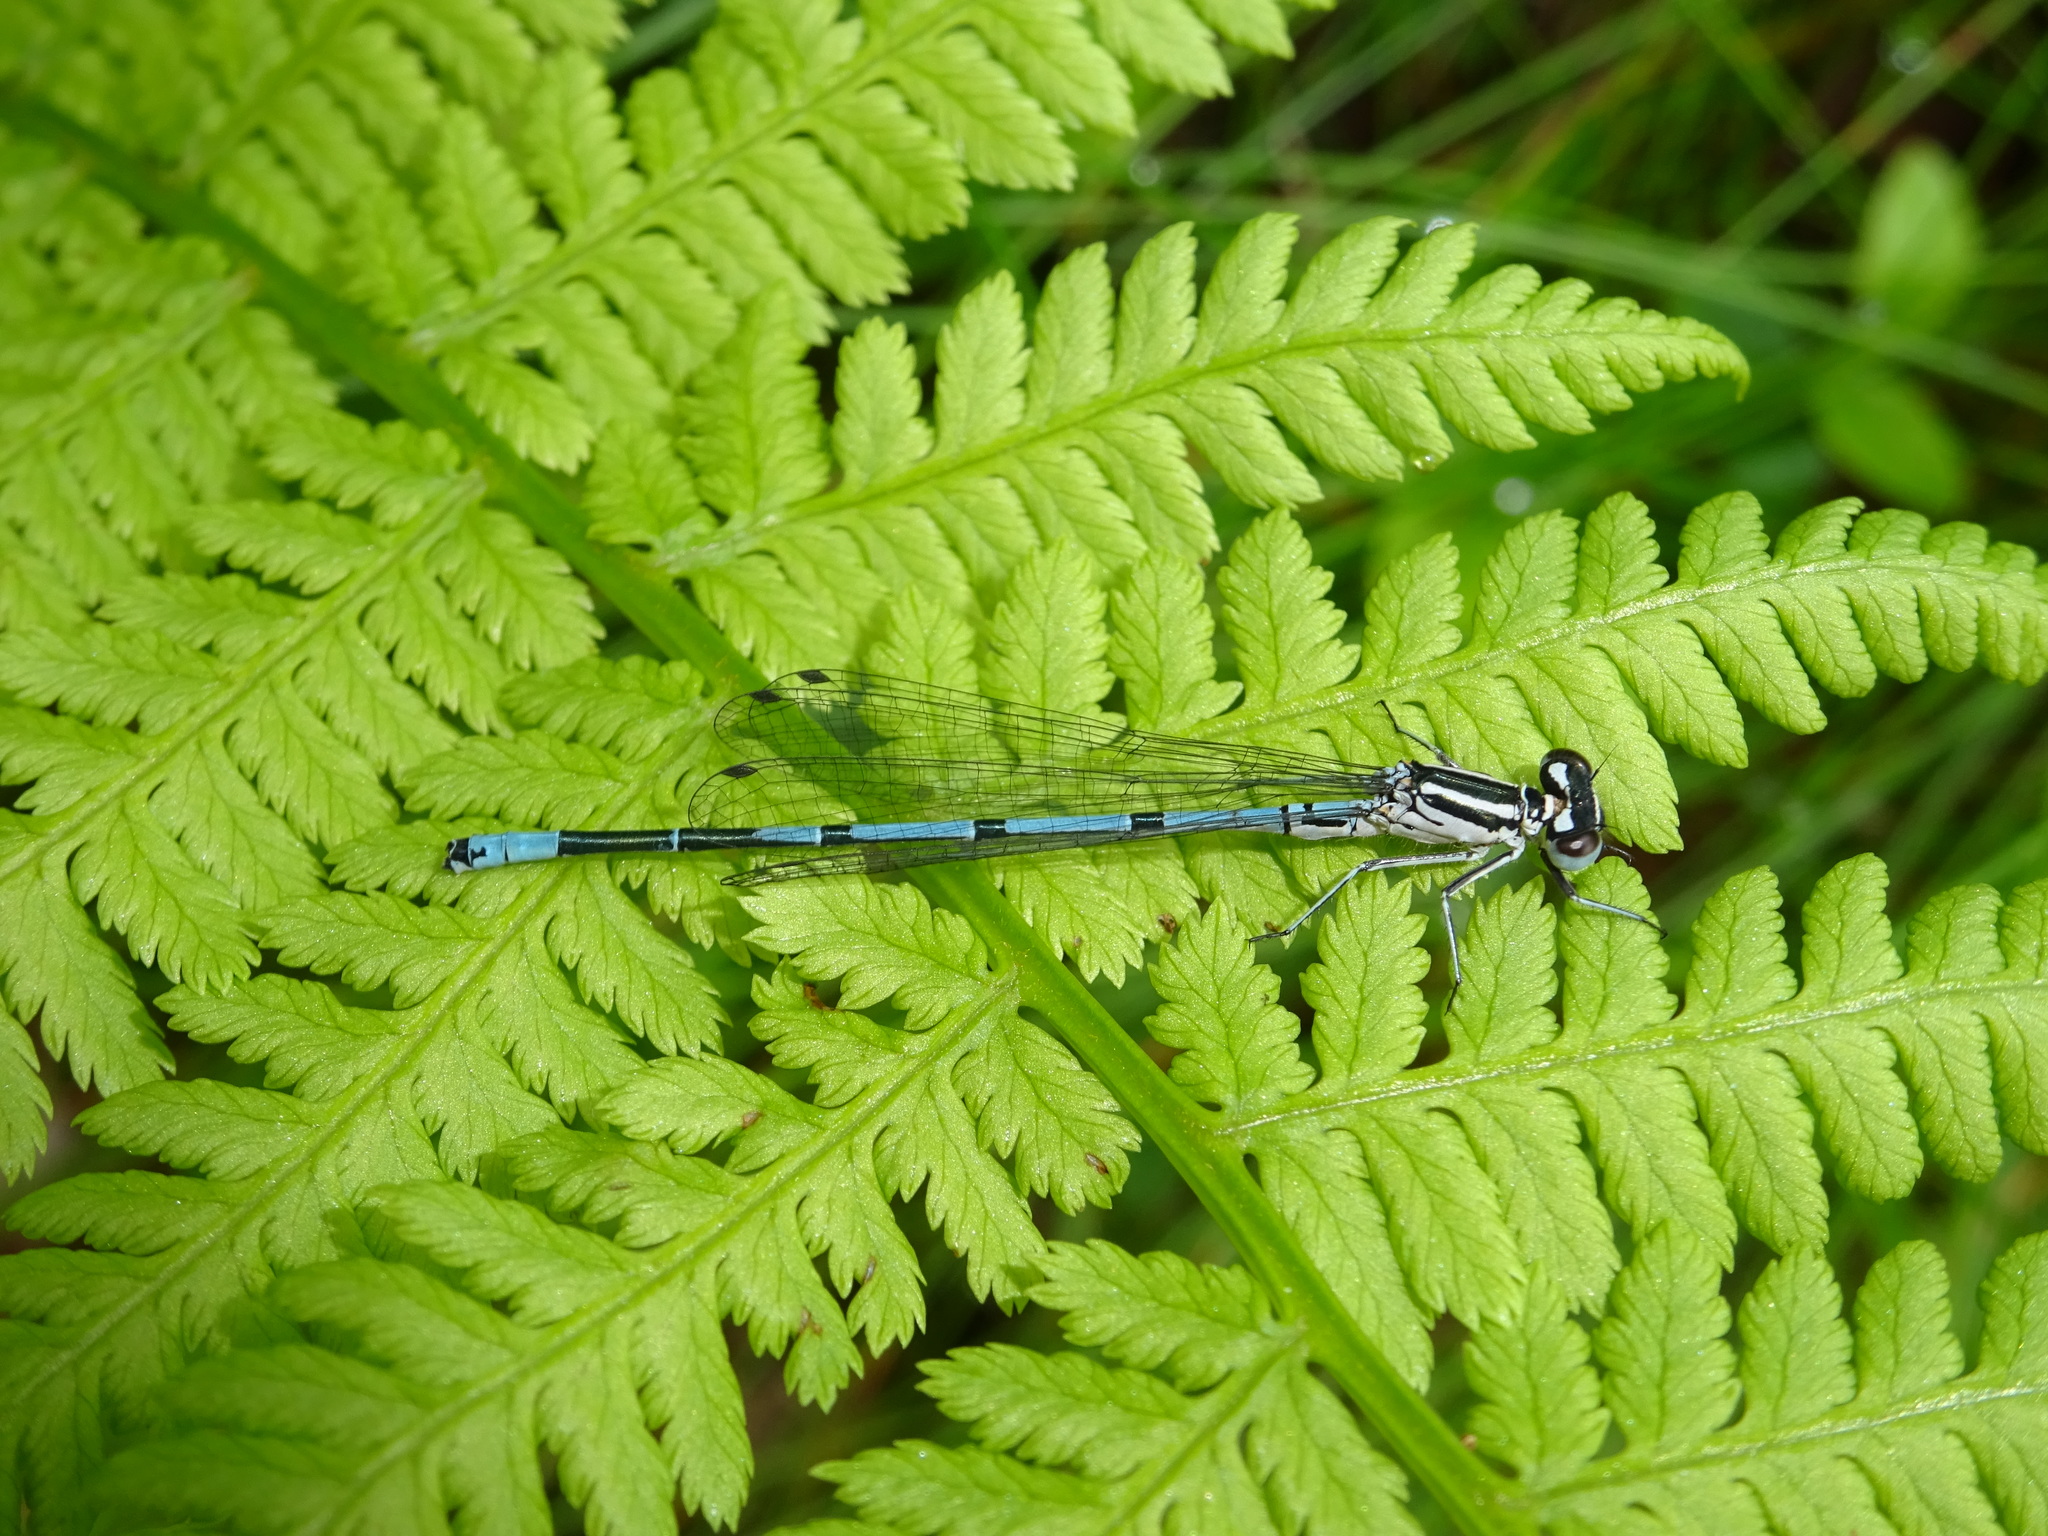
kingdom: Animalia
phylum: Arthropoda
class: Insecta
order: Odonata
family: Coenagrionidae
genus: Coenagrion
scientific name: Coenagrion puella
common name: Azure damselfly
